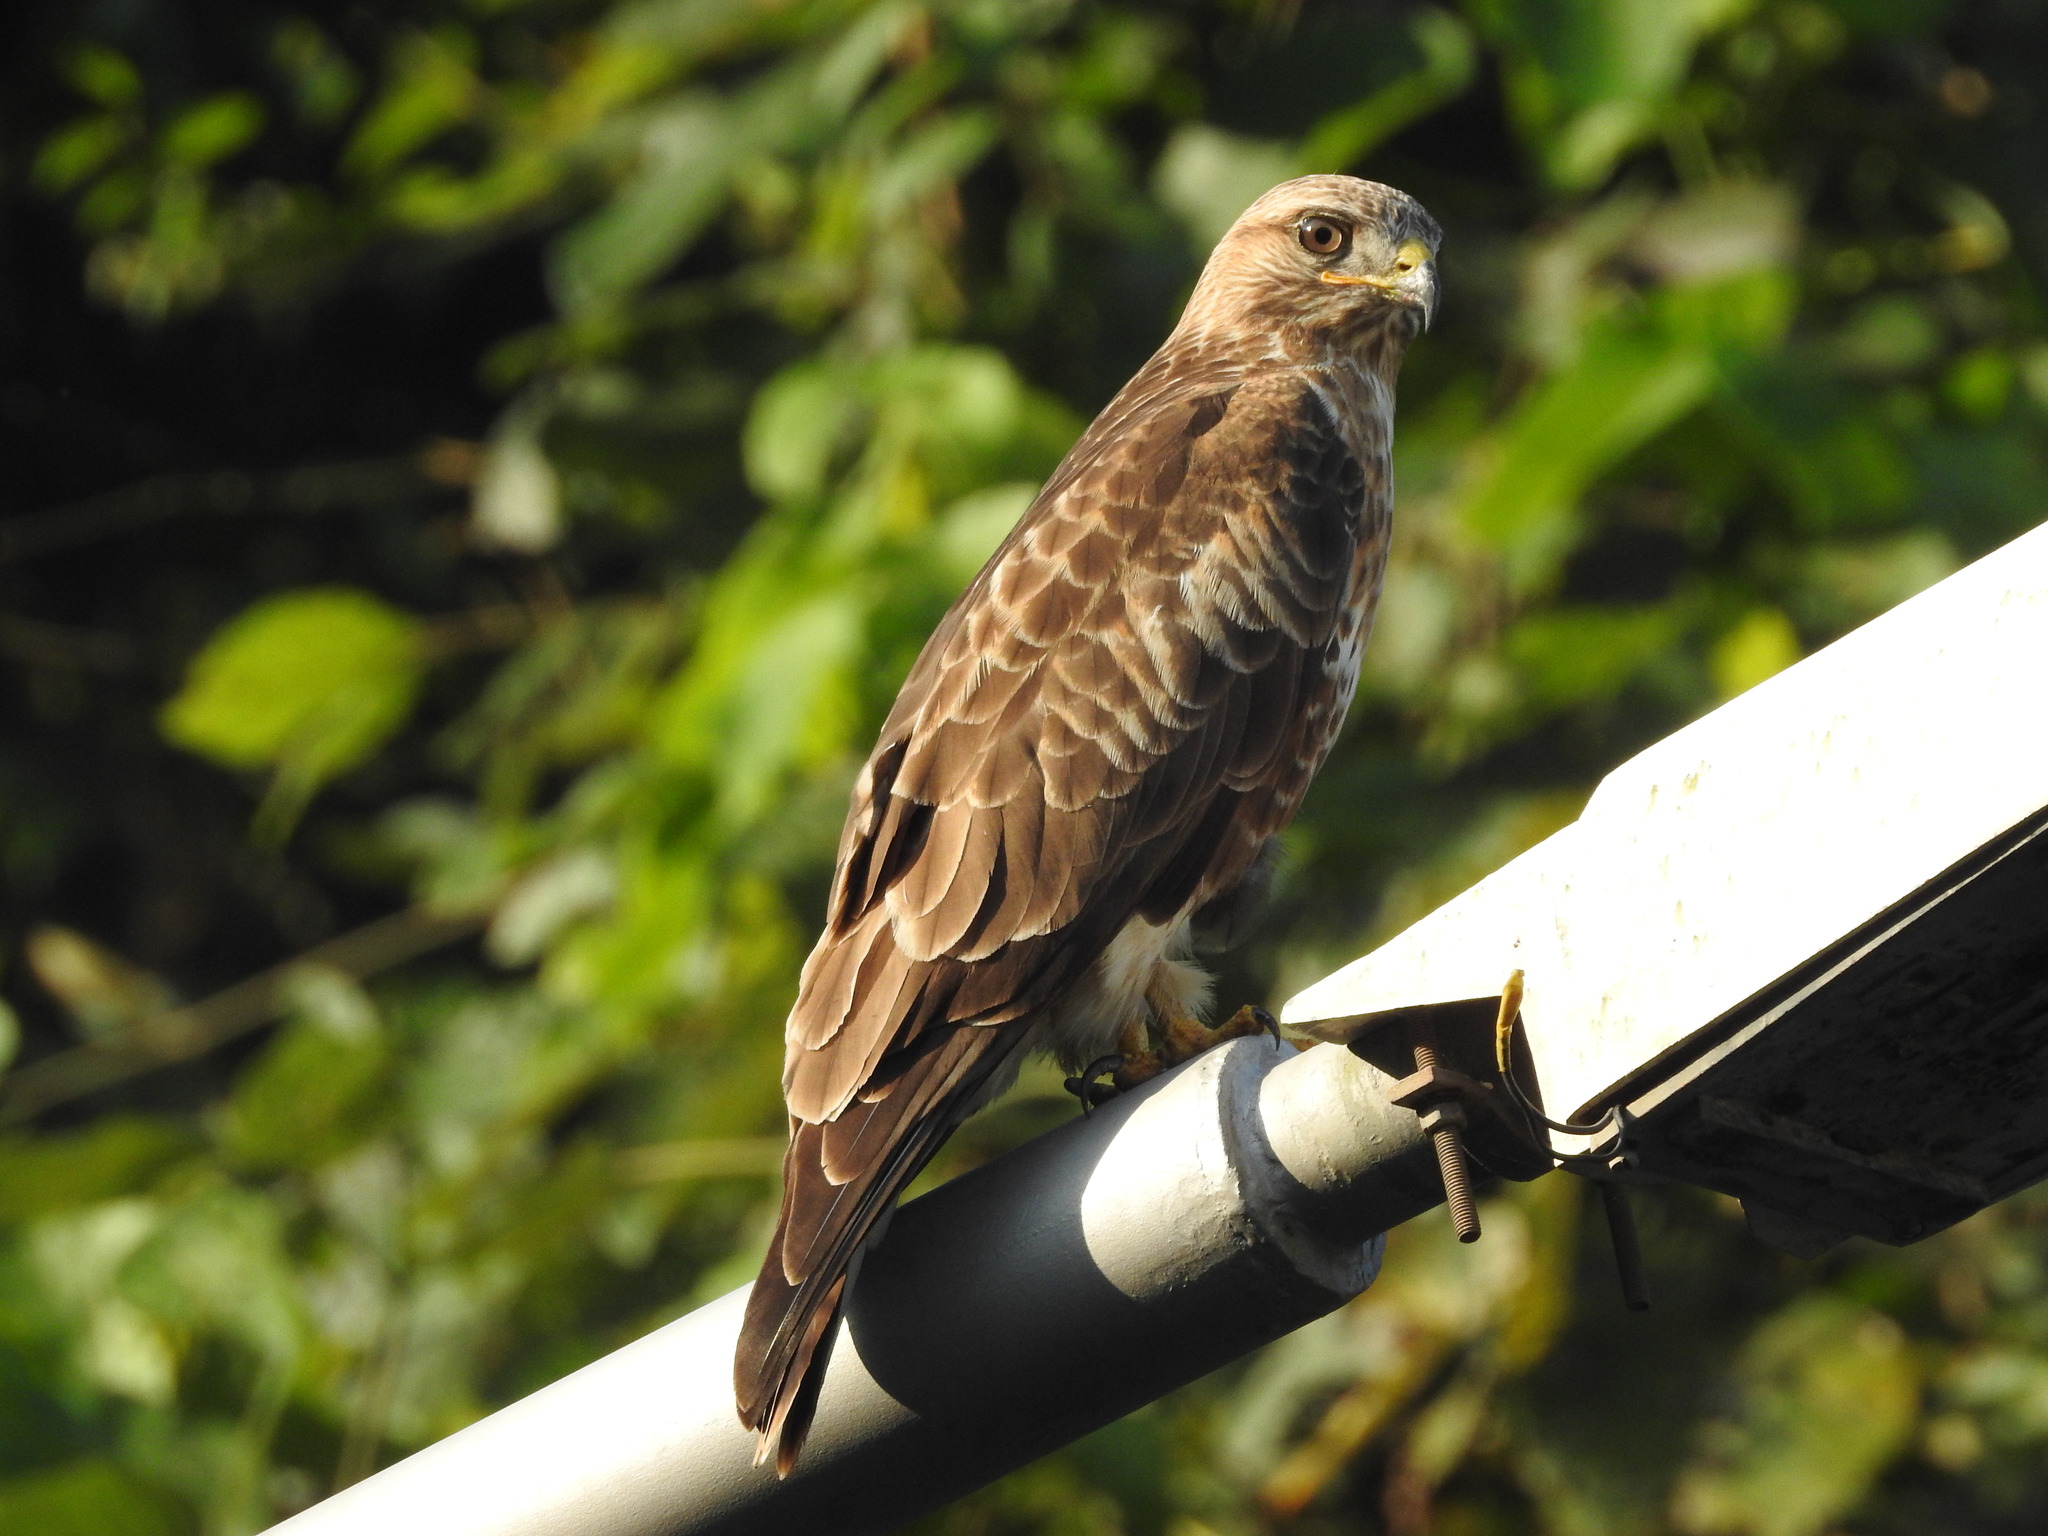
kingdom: Animalia
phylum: Chordata
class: Aves
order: Falconiformes
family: Falconidae
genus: Falco
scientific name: Falco tinnunculus
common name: Common kestrel
